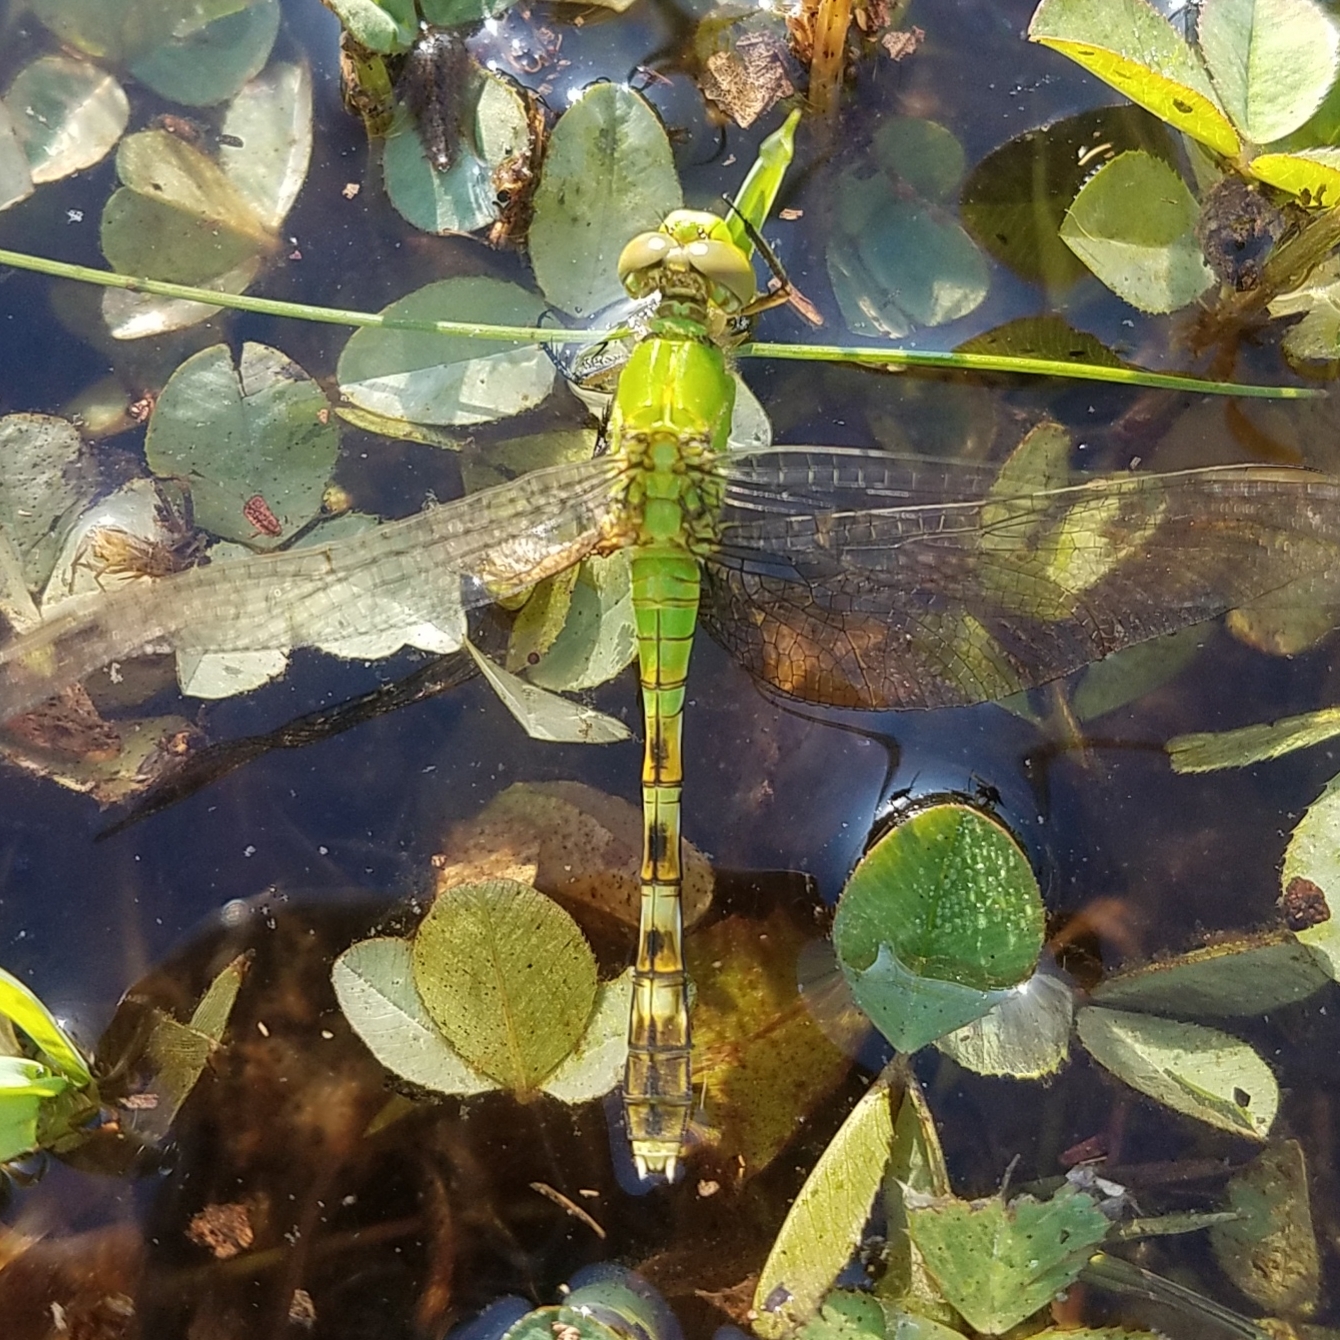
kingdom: Animalia
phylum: Arthropoda
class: Insecta
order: Odonata
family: Libellulidae
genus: Erythemis
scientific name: Erythemis simplicicollis
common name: Eastern pondhawk
